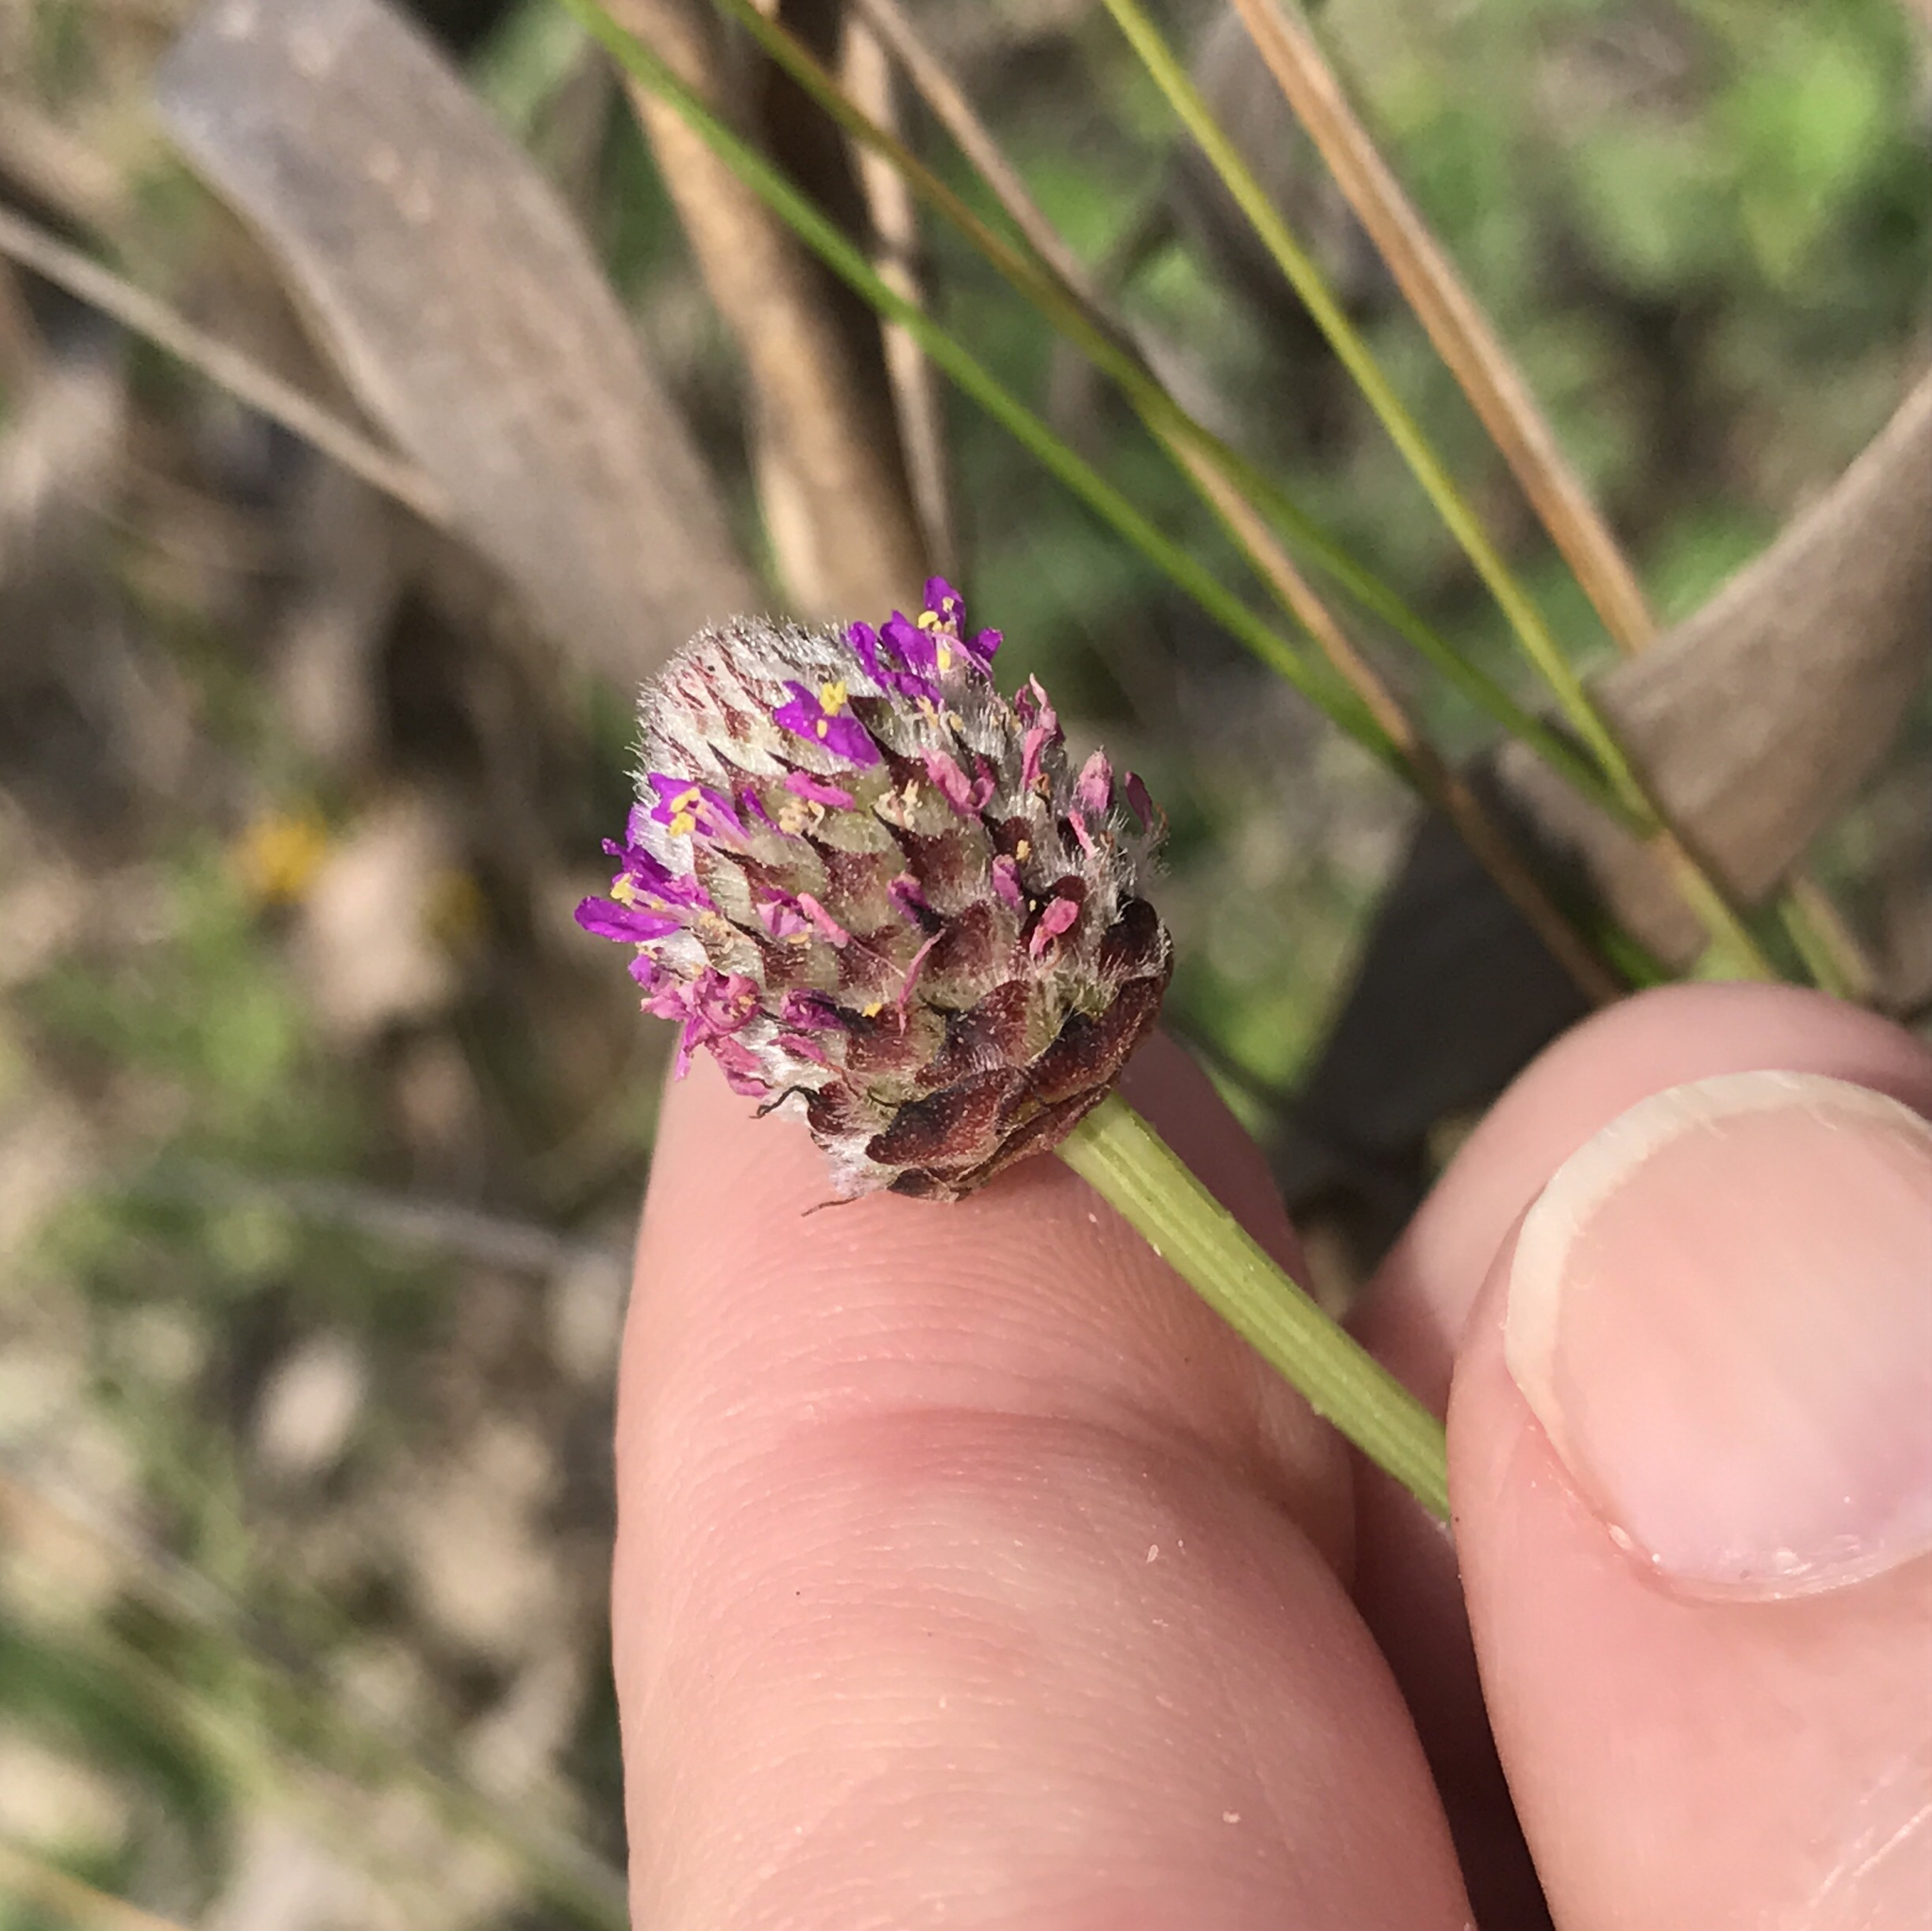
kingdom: Plantae
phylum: Tracheophyta
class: Magnoliopsida
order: Fabales
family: Fabaceae
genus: Dalea
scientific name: Dalea emarginata
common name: Wedgeleaf prairie clover
